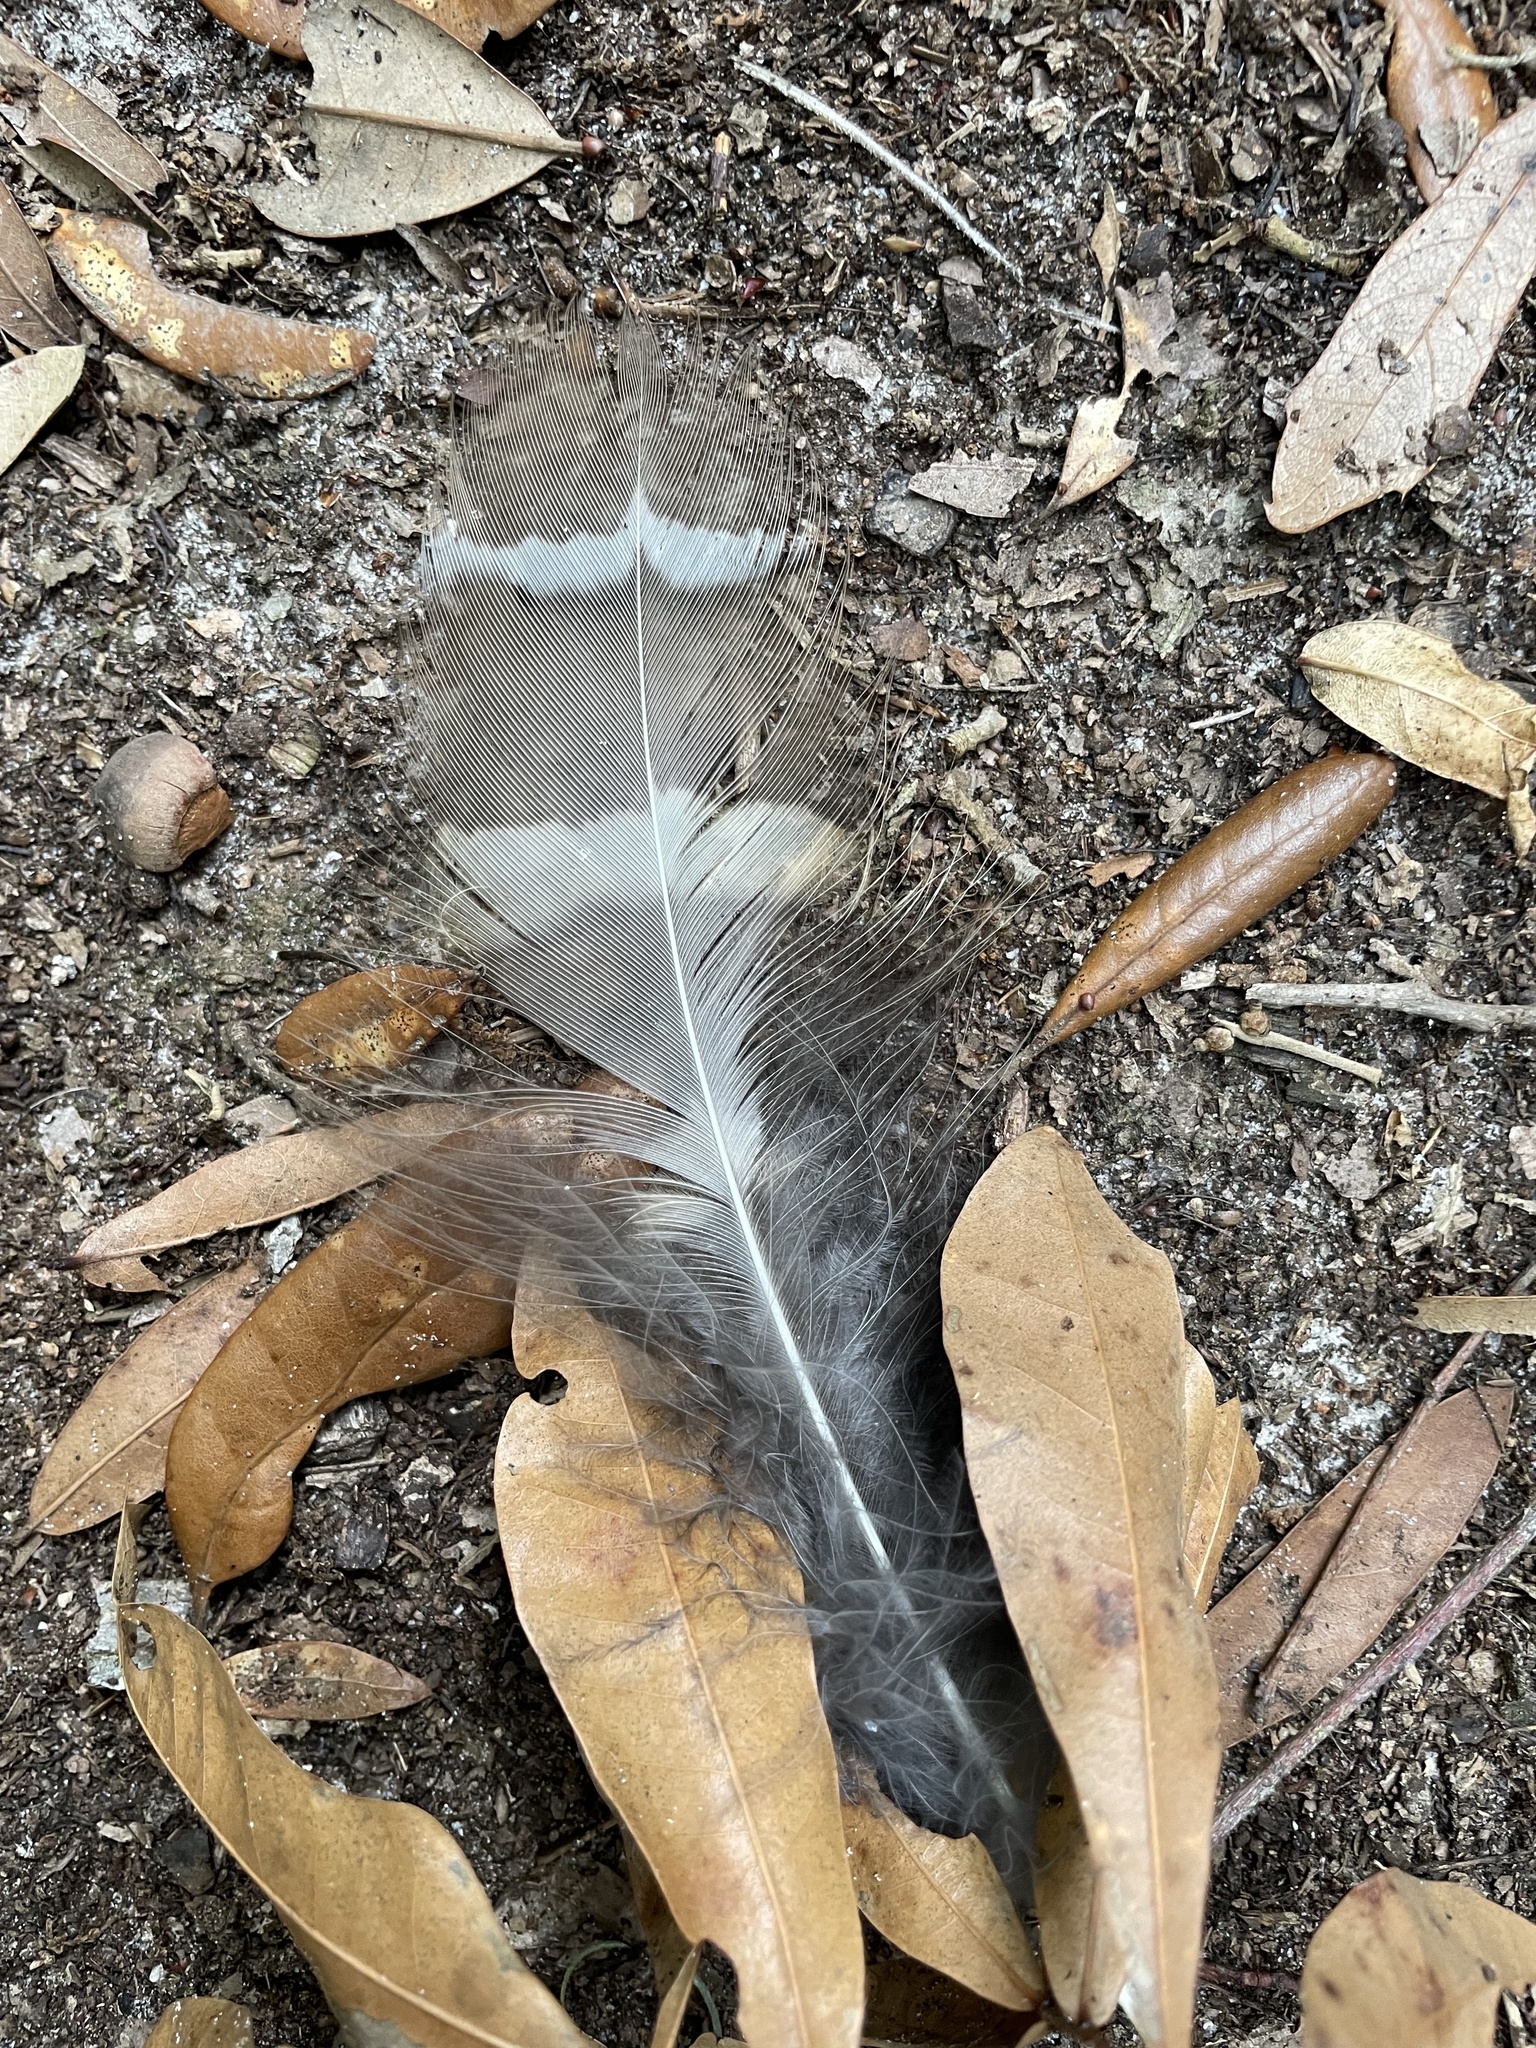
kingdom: Animalia
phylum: Chordata
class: Aves
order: Strigiformes
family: Strigidae
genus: Strix
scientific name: Strix varia
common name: Barred owl
